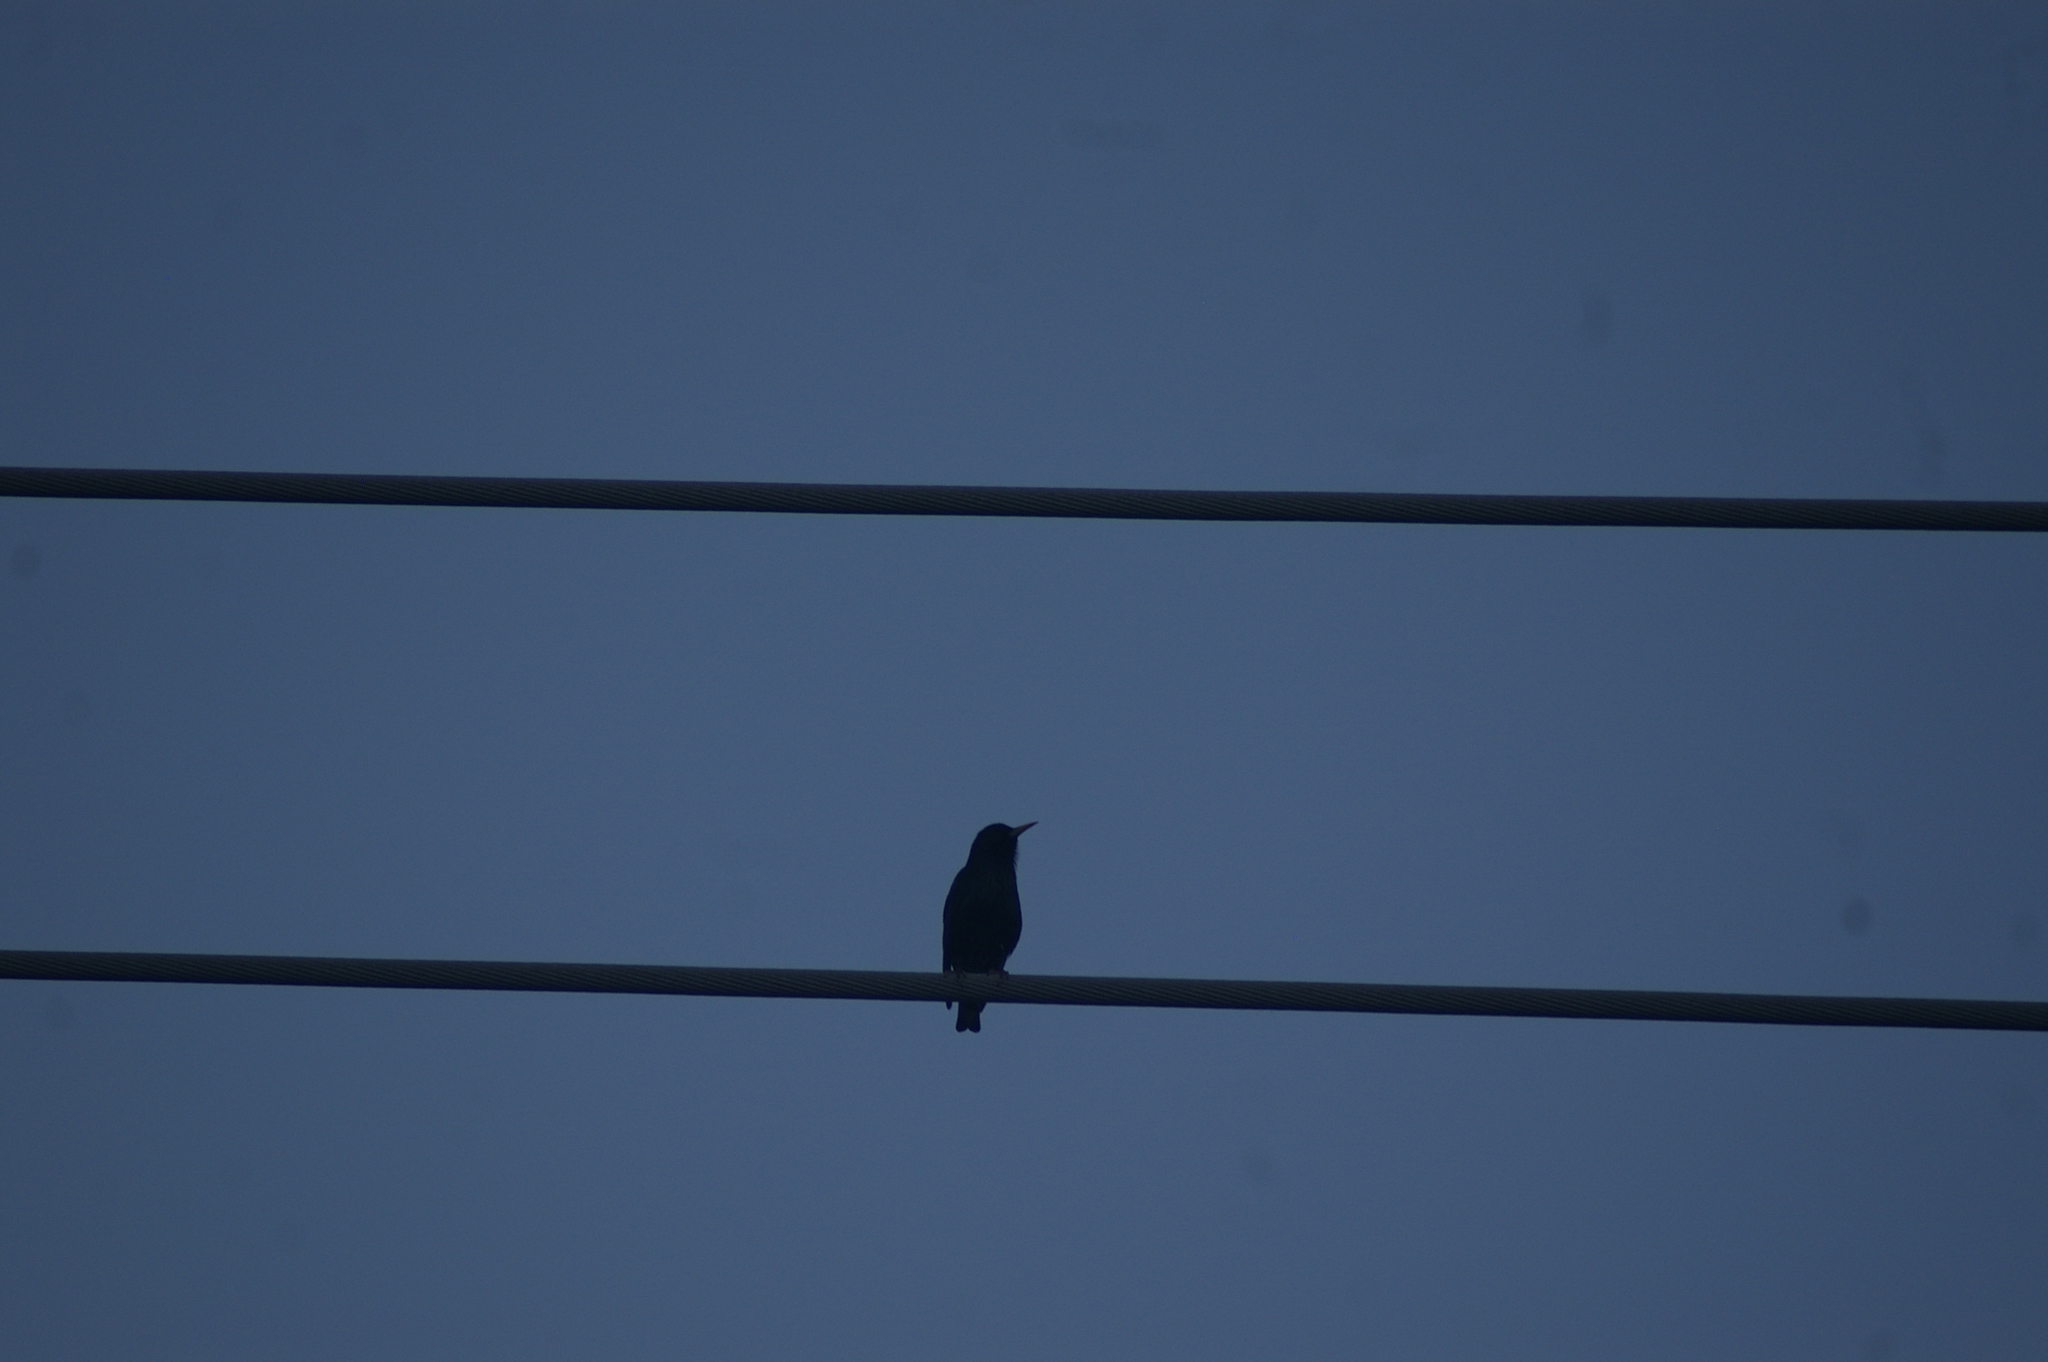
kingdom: Animalia
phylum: Chordata
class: Aves
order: Passeriformes
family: Sturnidae
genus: Sturnus
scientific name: Sturnus vulgaris
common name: Common starling
